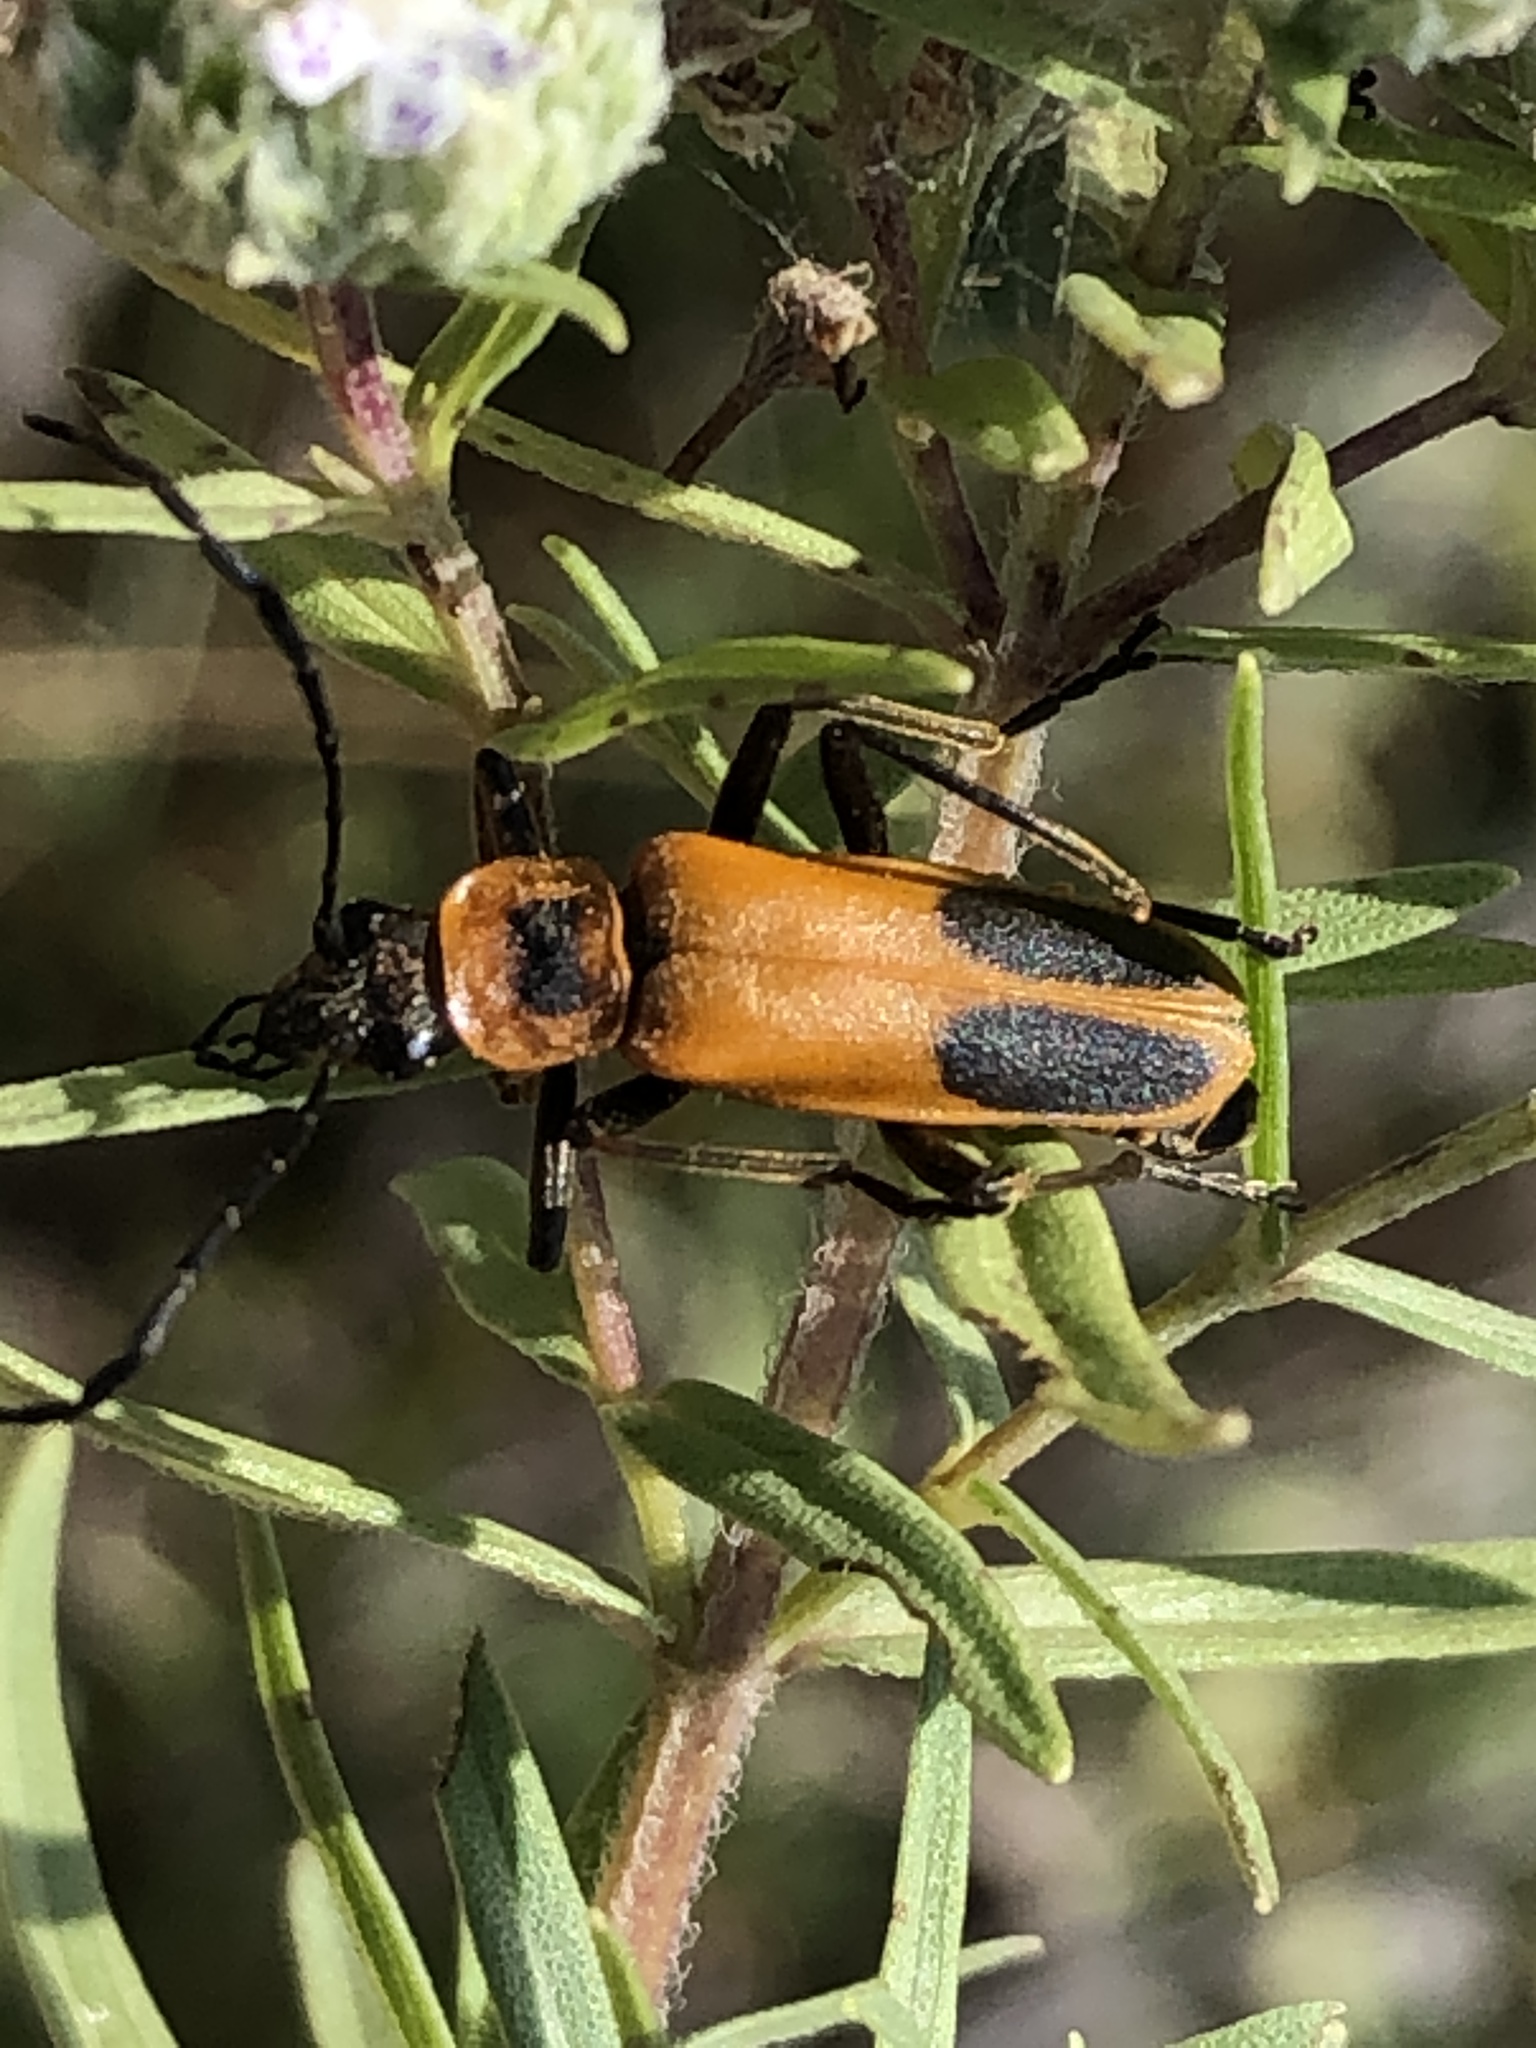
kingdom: Animalia
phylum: Arthropoda
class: Insecta
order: Coleoptera
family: Cantharidae
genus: Chauliognathus
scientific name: Chauliognathus pensylvanicus
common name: Goldenrod soldier beetle
